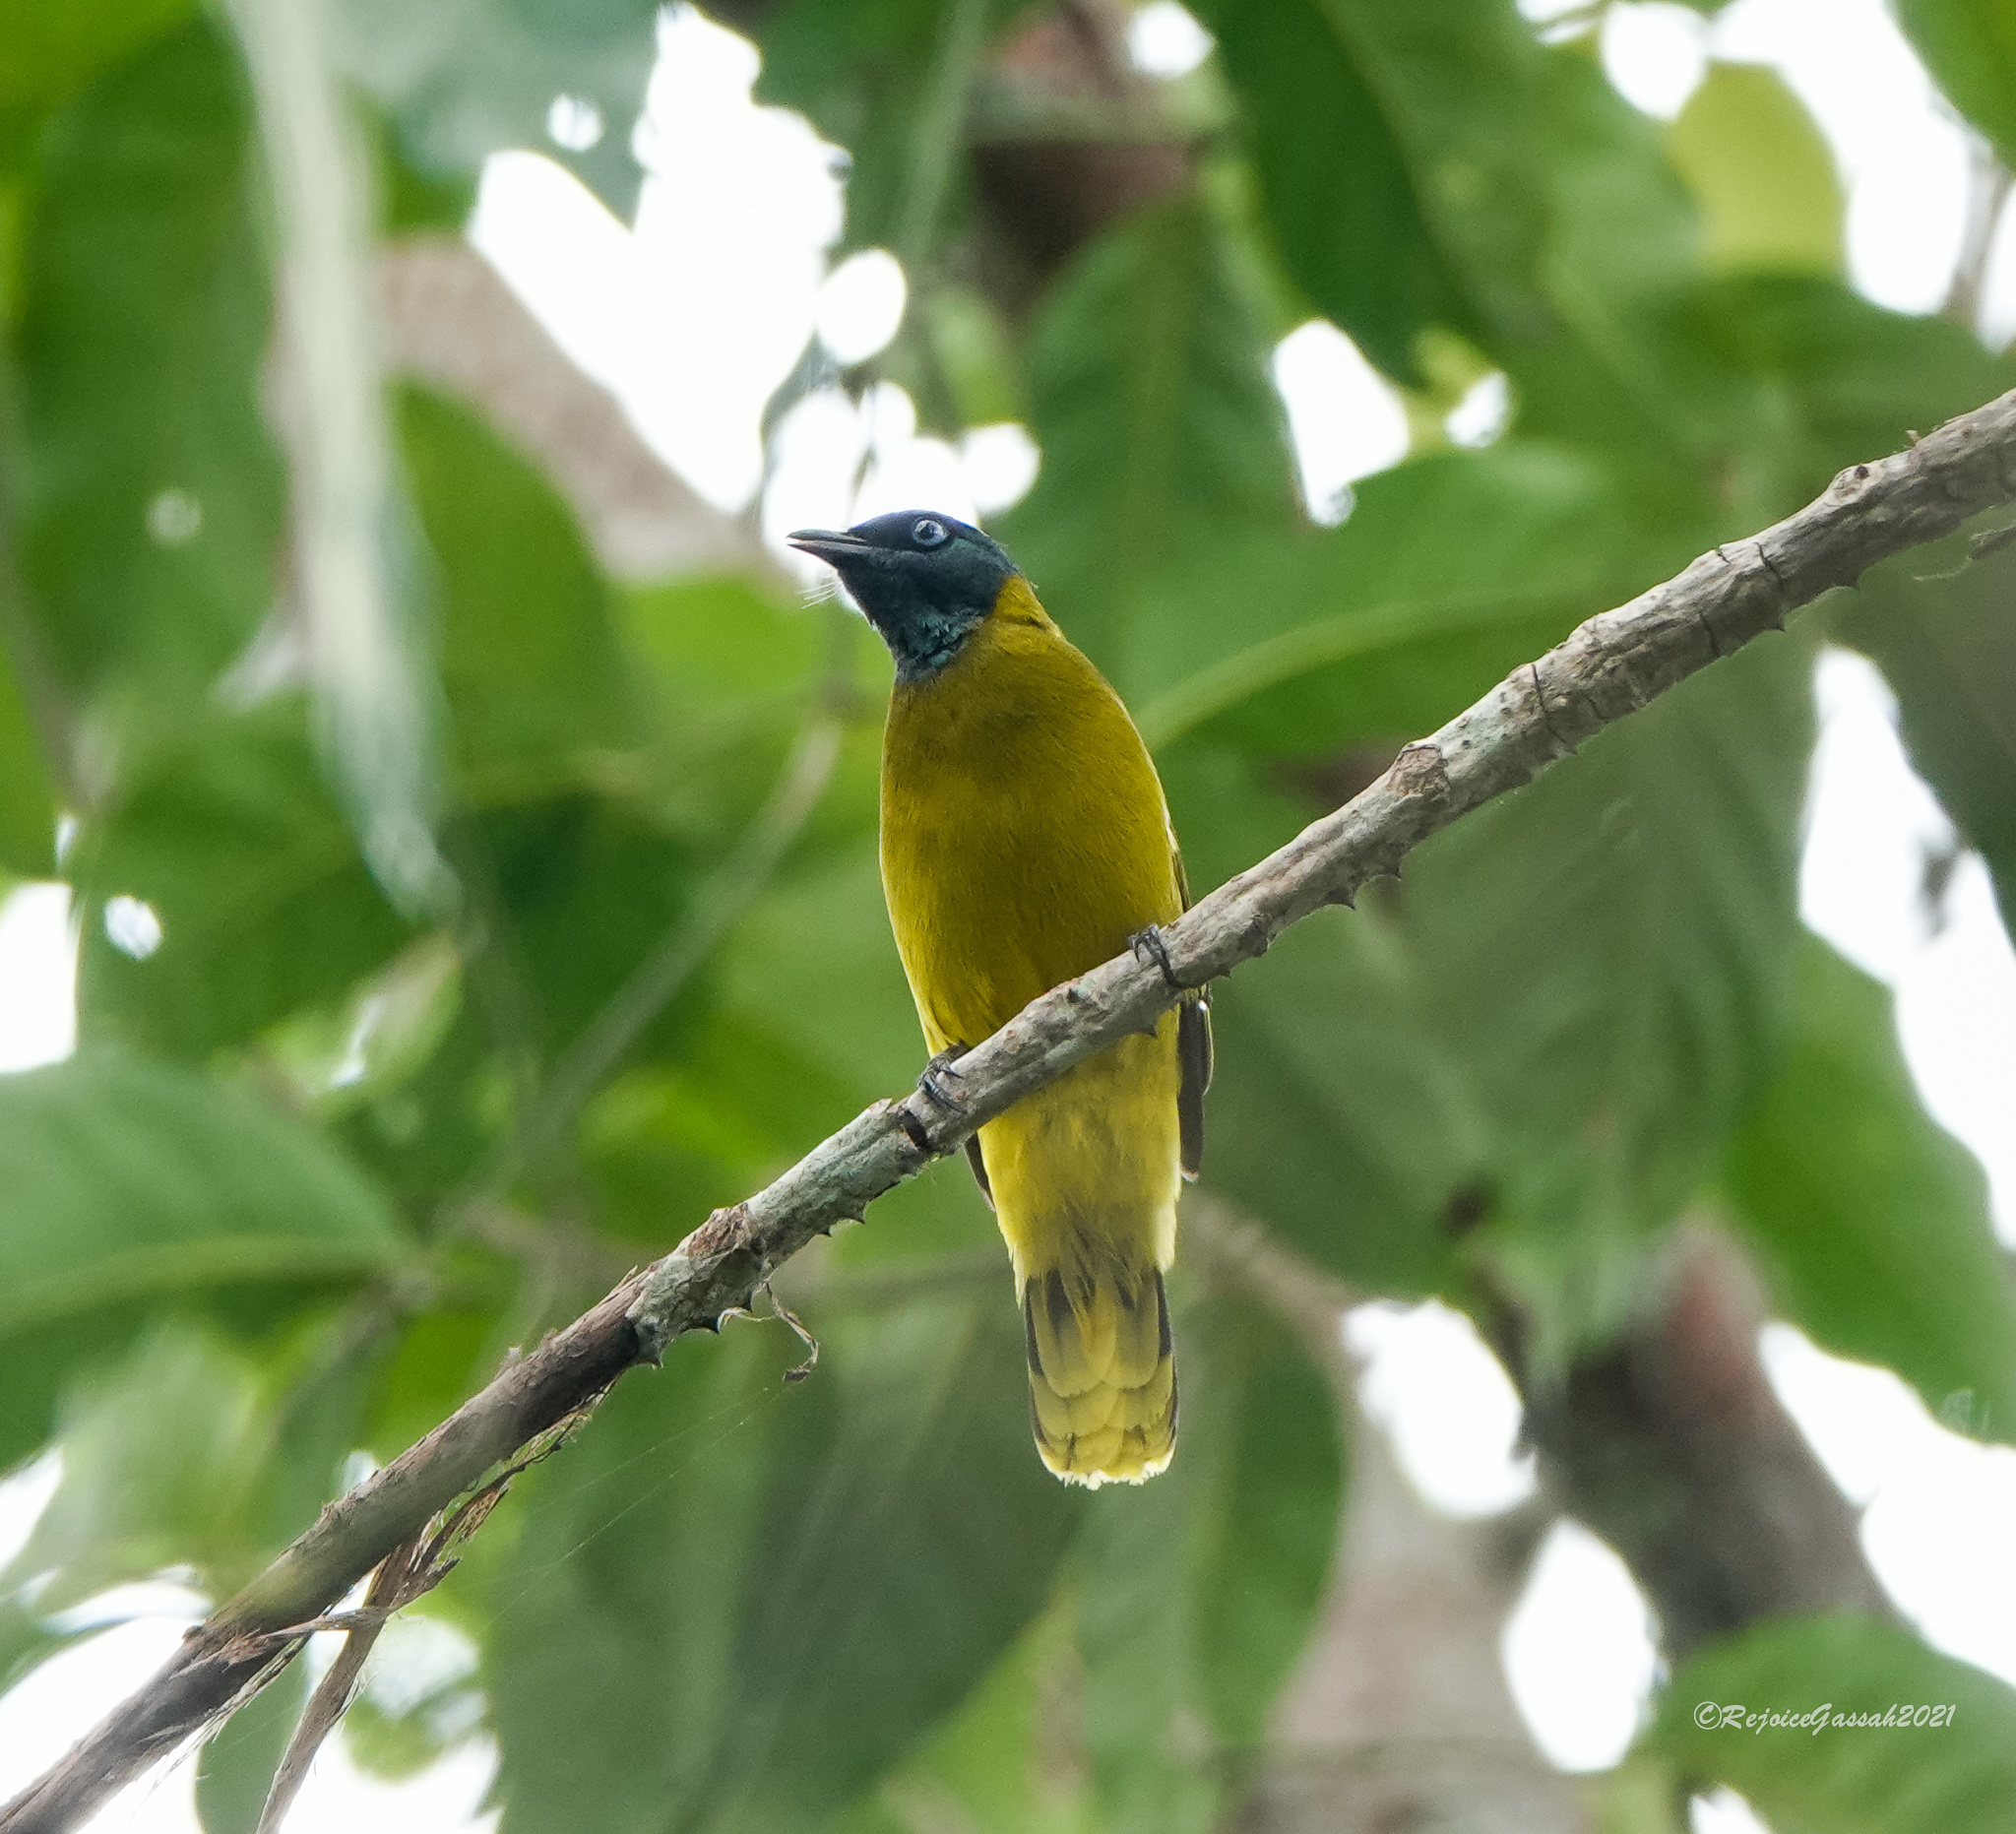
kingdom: Animalia
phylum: Chordata
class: Aves
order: Passeriformes
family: Pycnonotidae
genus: Microtarsus
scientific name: Microtarsus
